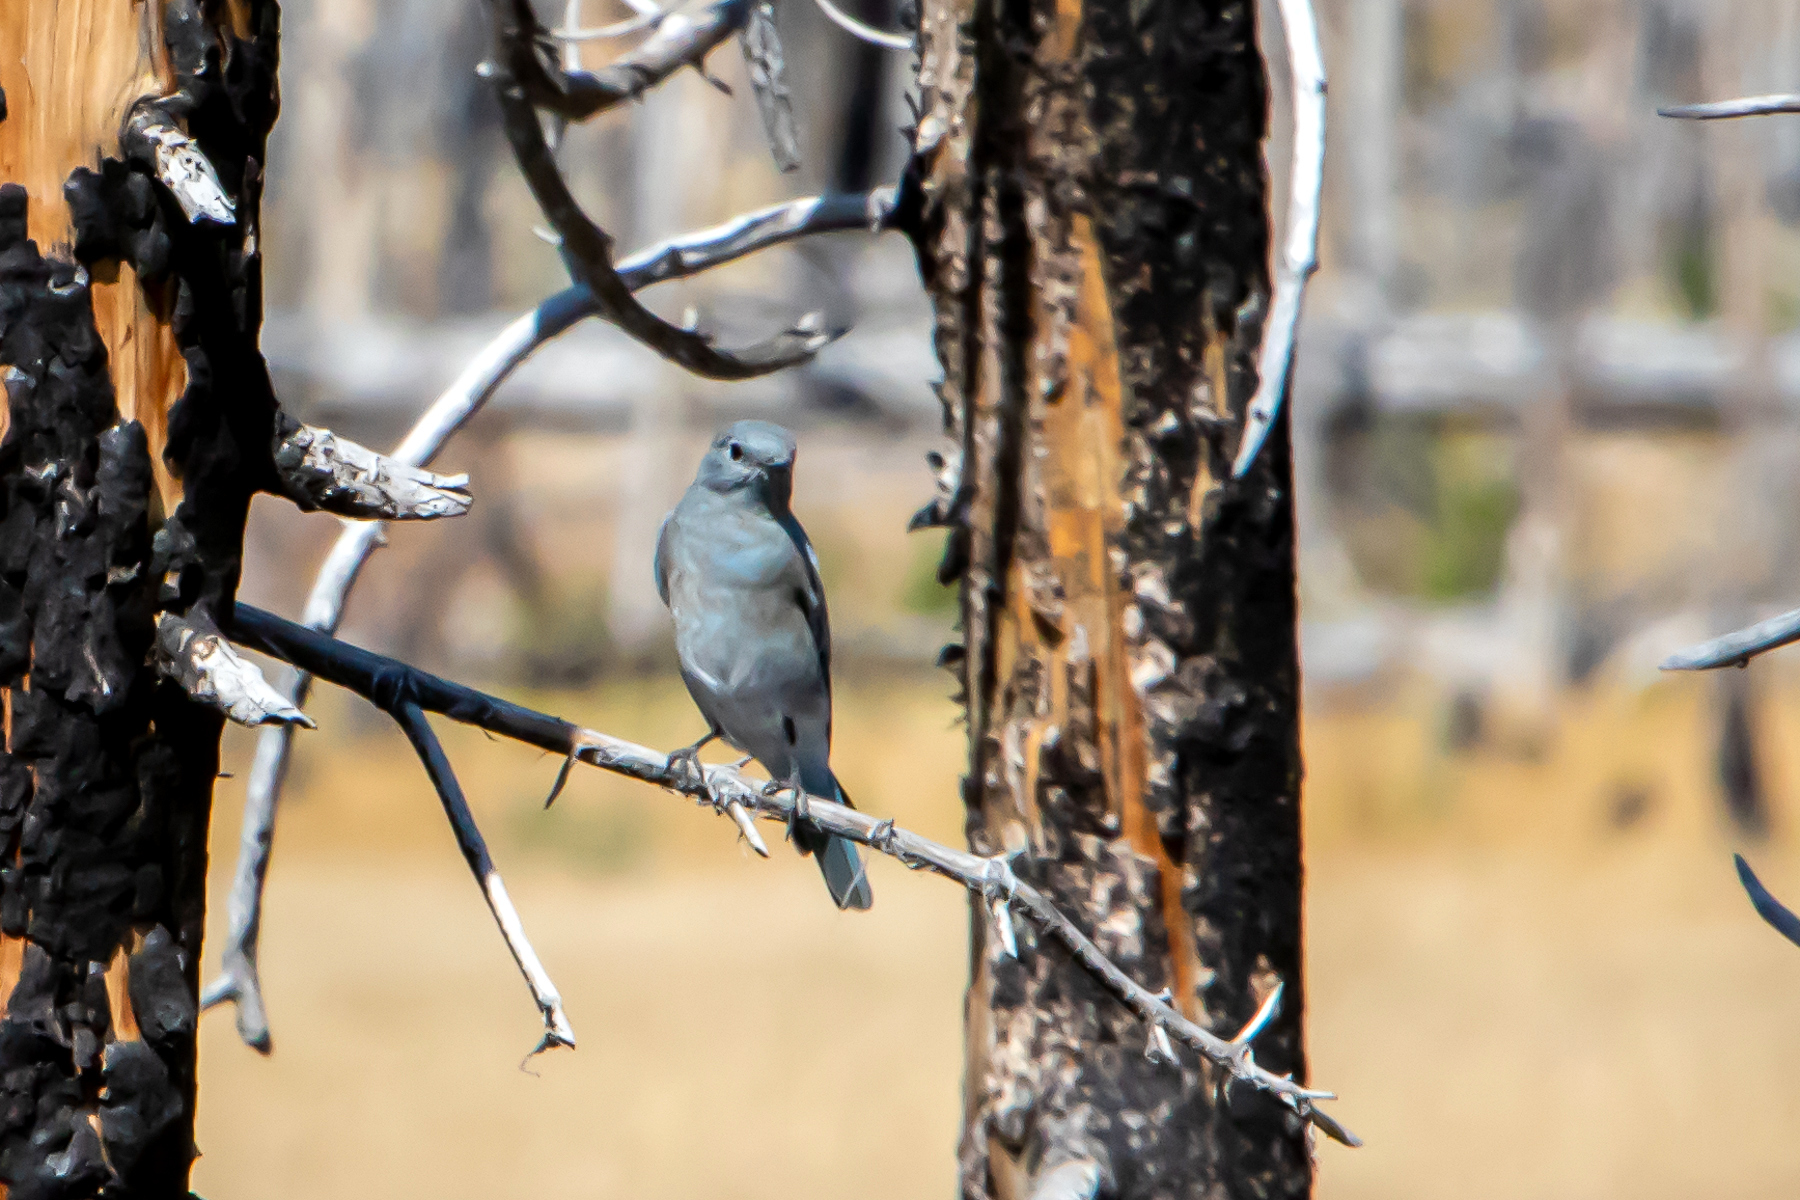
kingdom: Animalia
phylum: Chordata
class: Aves
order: Passeriformes
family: Turdidae
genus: Sialia
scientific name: Sialia currucoides
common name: Mountain bluebird
